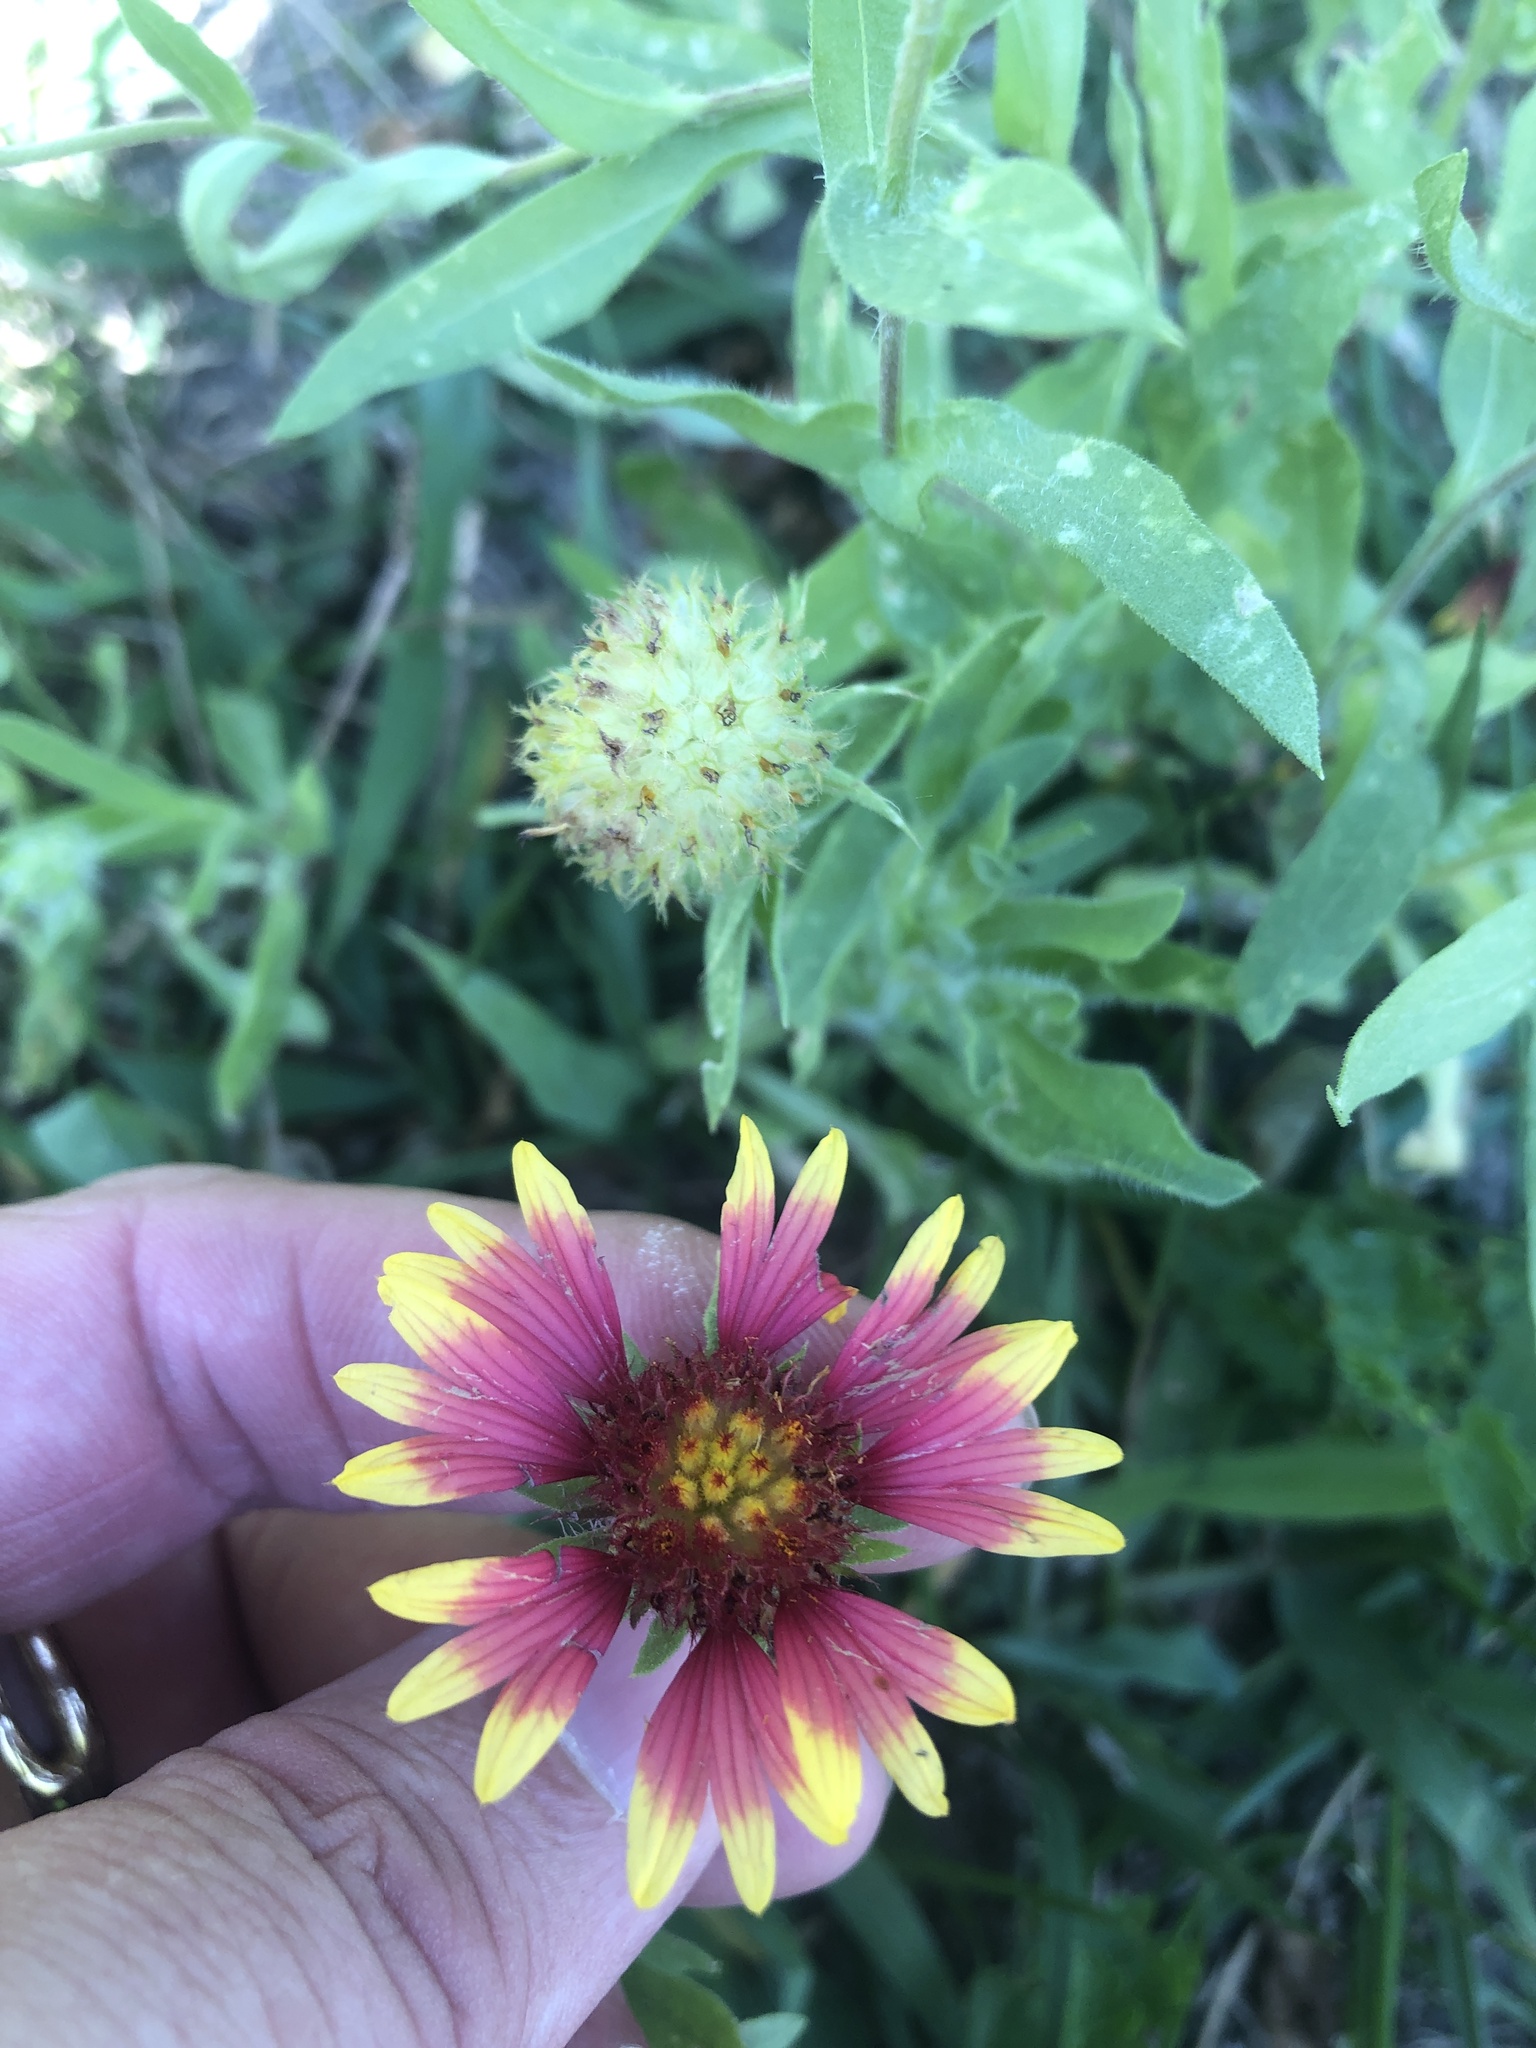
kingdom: Plantae
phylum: Tracheophyta
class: Magnoliopsida
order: Asterales
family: Asteraceae
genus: Gaillardia
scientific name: Gaillardia pulchella
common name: Firewheel
